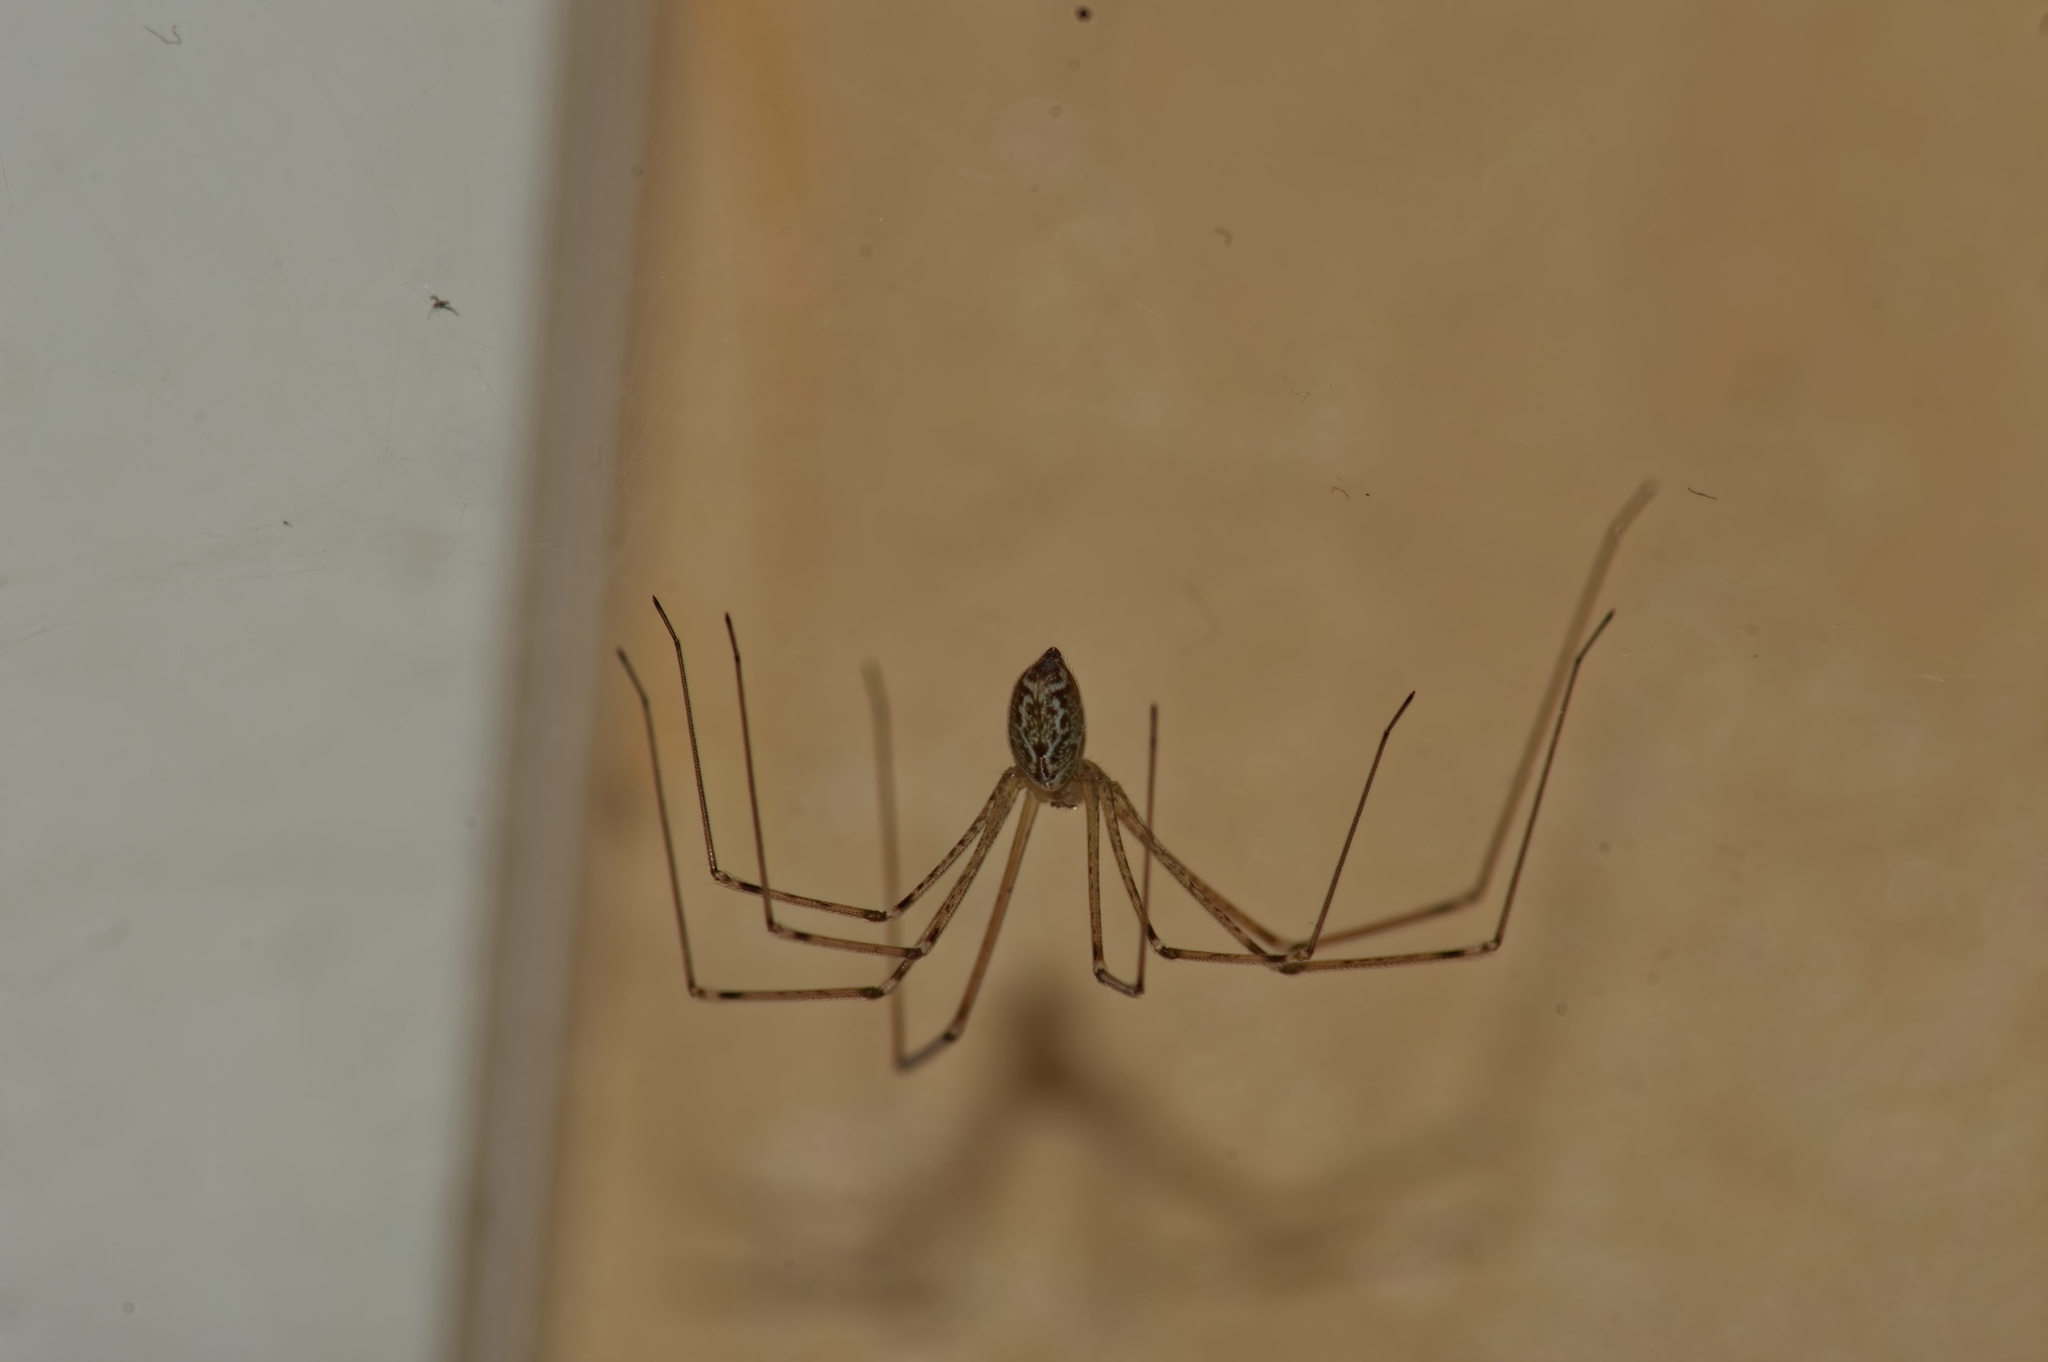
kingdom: Animalia
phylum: Arthropoda
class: Arachnida
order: Araneae
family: Pholcidae
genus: Holocnemus
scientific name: Holocnemus pluchei
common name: Marbled cellar spider
